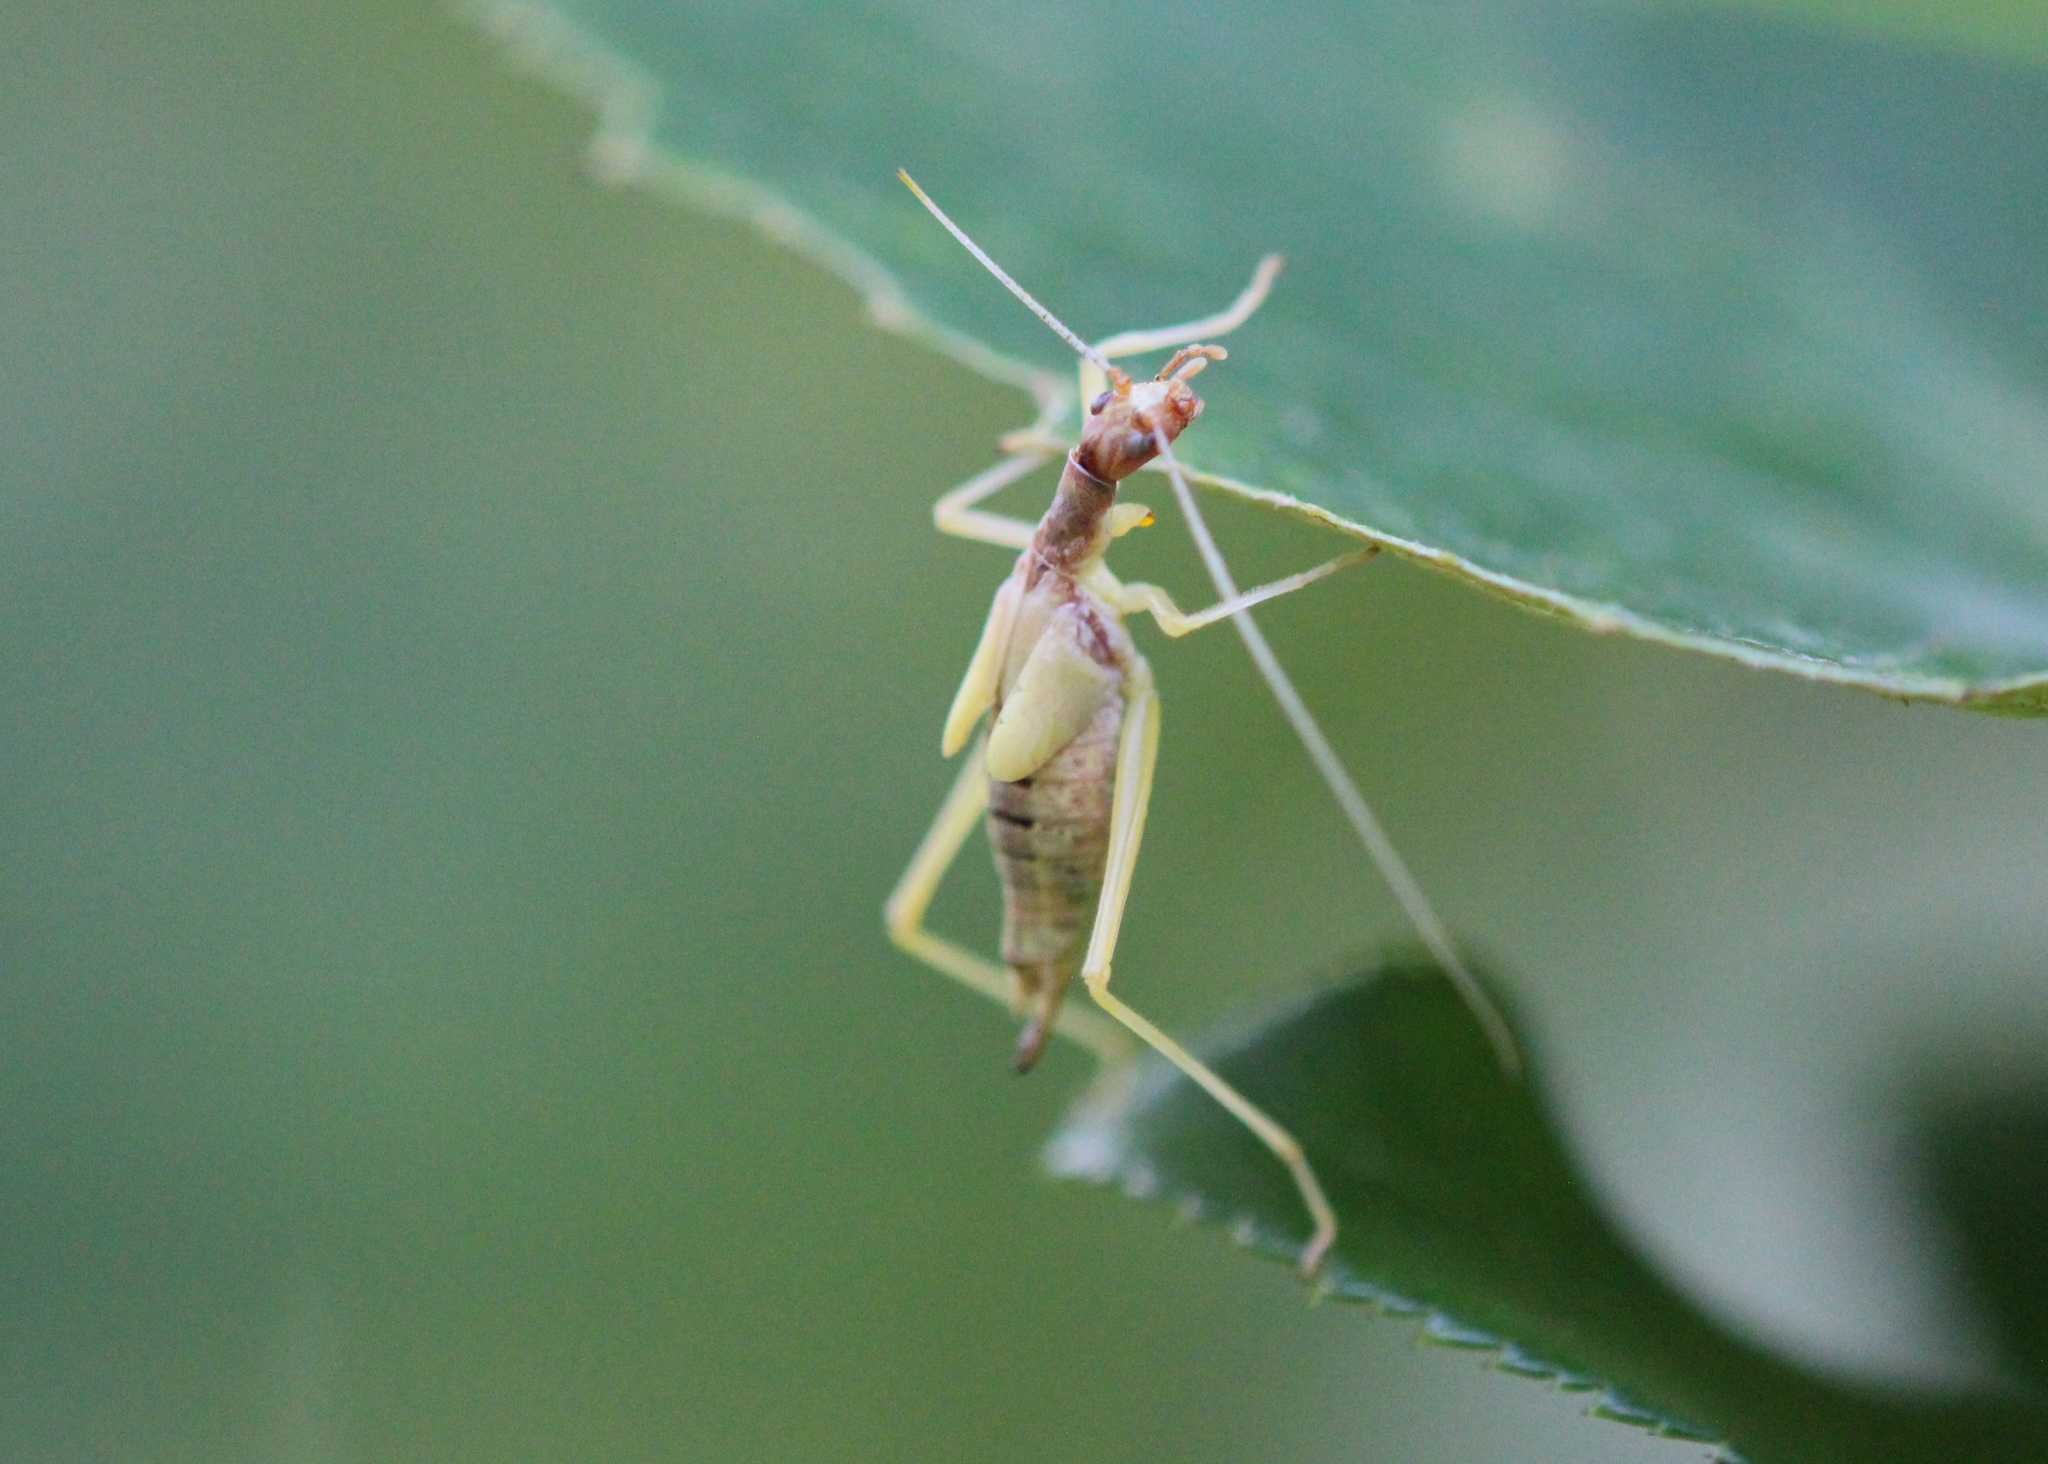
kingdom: Animalia
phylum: Arthropoda
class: Insecta
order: Orthoptera
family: Gryllidae
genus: Neoxabea
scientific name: Neoxabea bipunctata
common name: Two-spotted tree cricket
